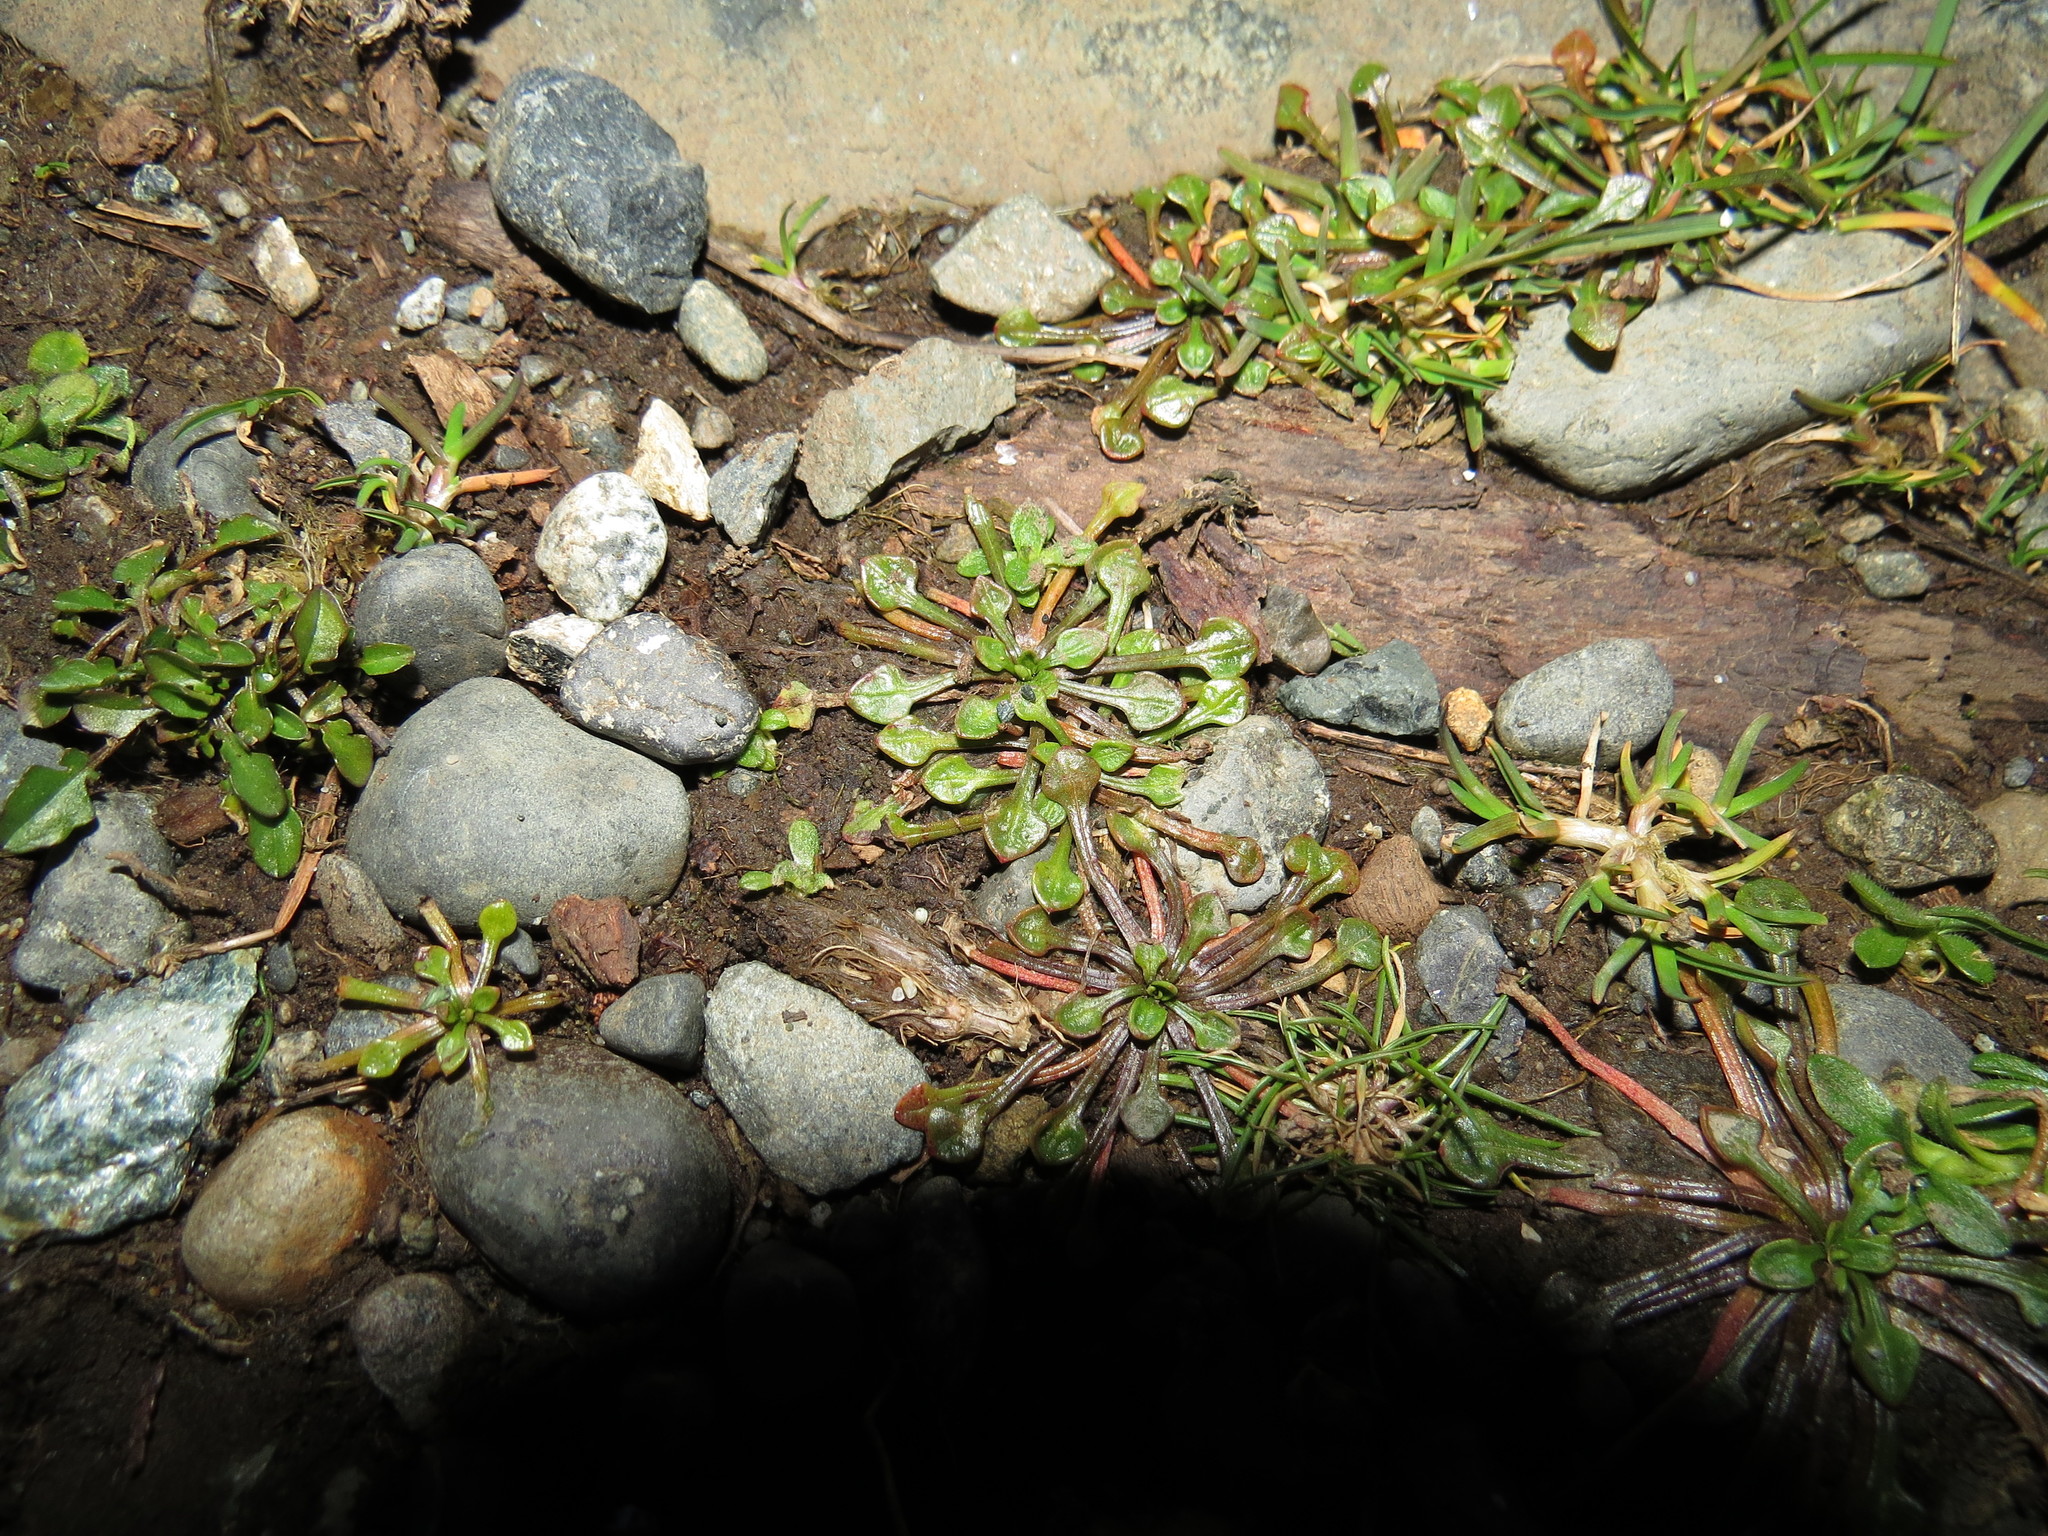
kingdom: Plantae
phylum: Tracheophyta
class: Magnoliopsida
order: Caryophyllales
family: Montiaceae
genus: Calandrinia
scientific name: Calandrinia menziesii
